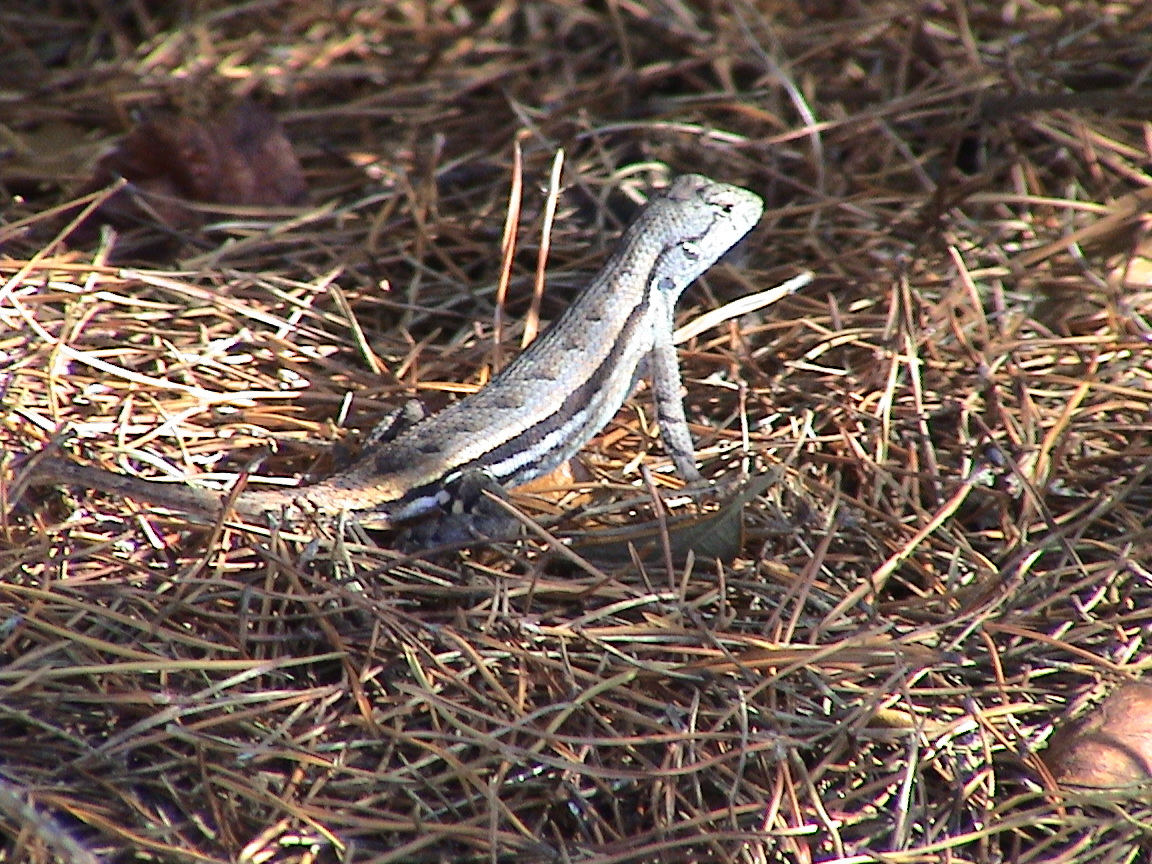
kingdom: Animalia
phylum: Chordata
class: Squamata
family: Phrynosomatidae
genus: Sceloporus
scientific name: Sceloporus woodi
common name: Florida scrub lizard
